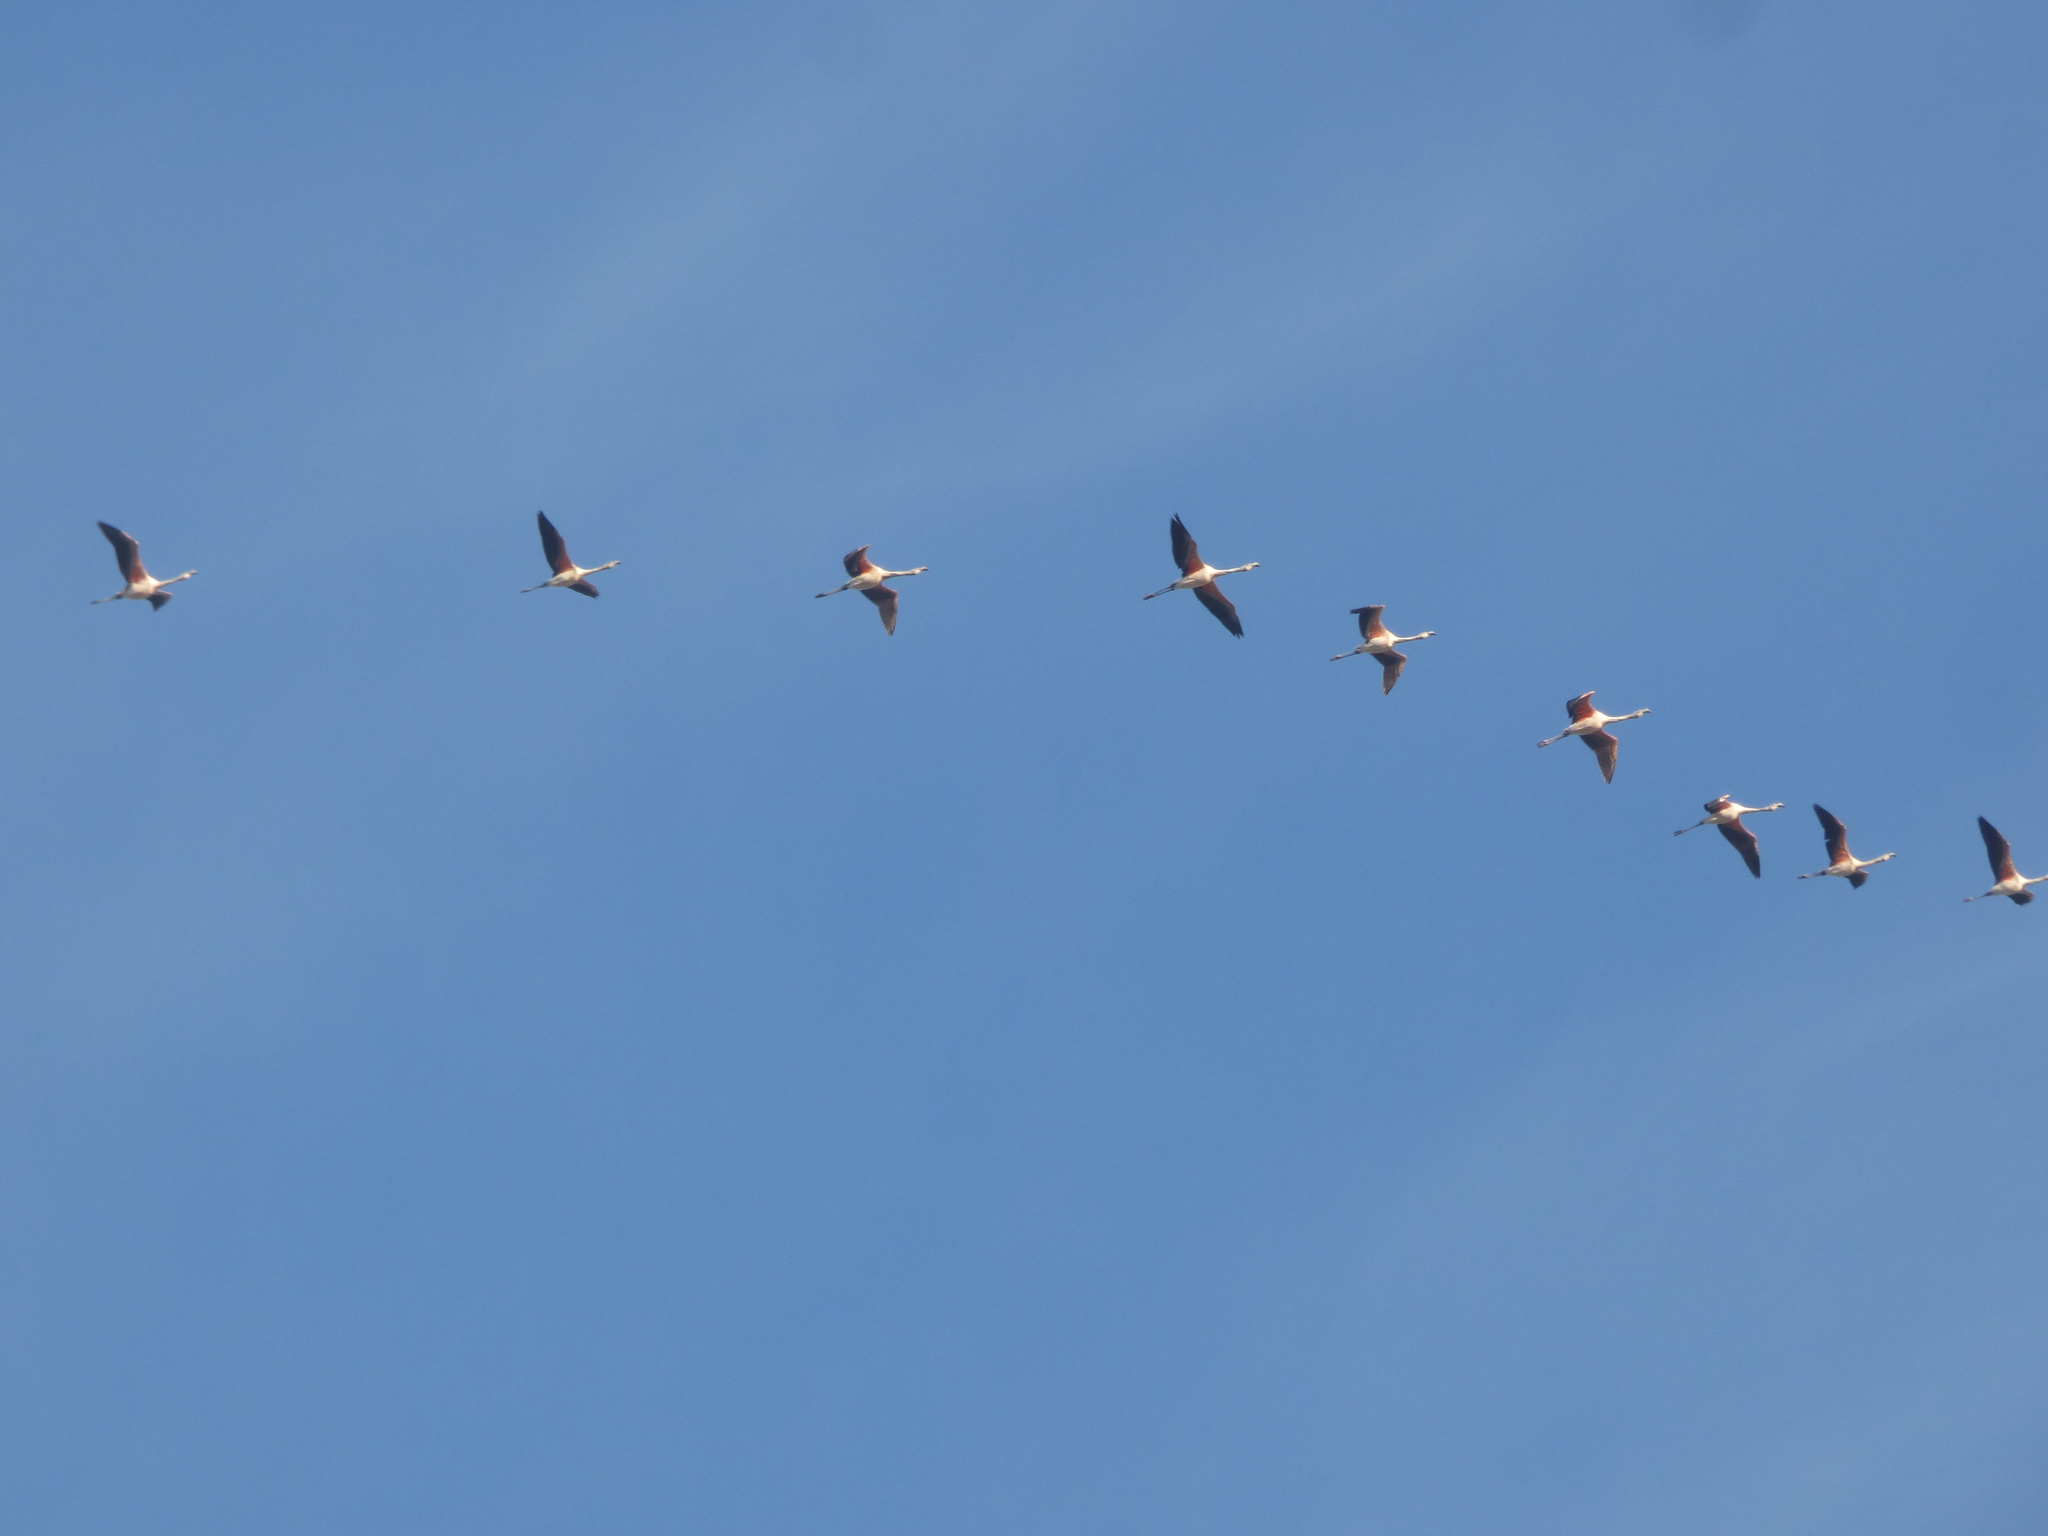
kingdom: Animalia
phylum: Chordata
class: Aves
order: Phoenicopteriformes
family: Phoenicopteridae
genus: Phoenicopterus
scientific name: Phoenicopterus chilensis
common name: Chilean flamingo
